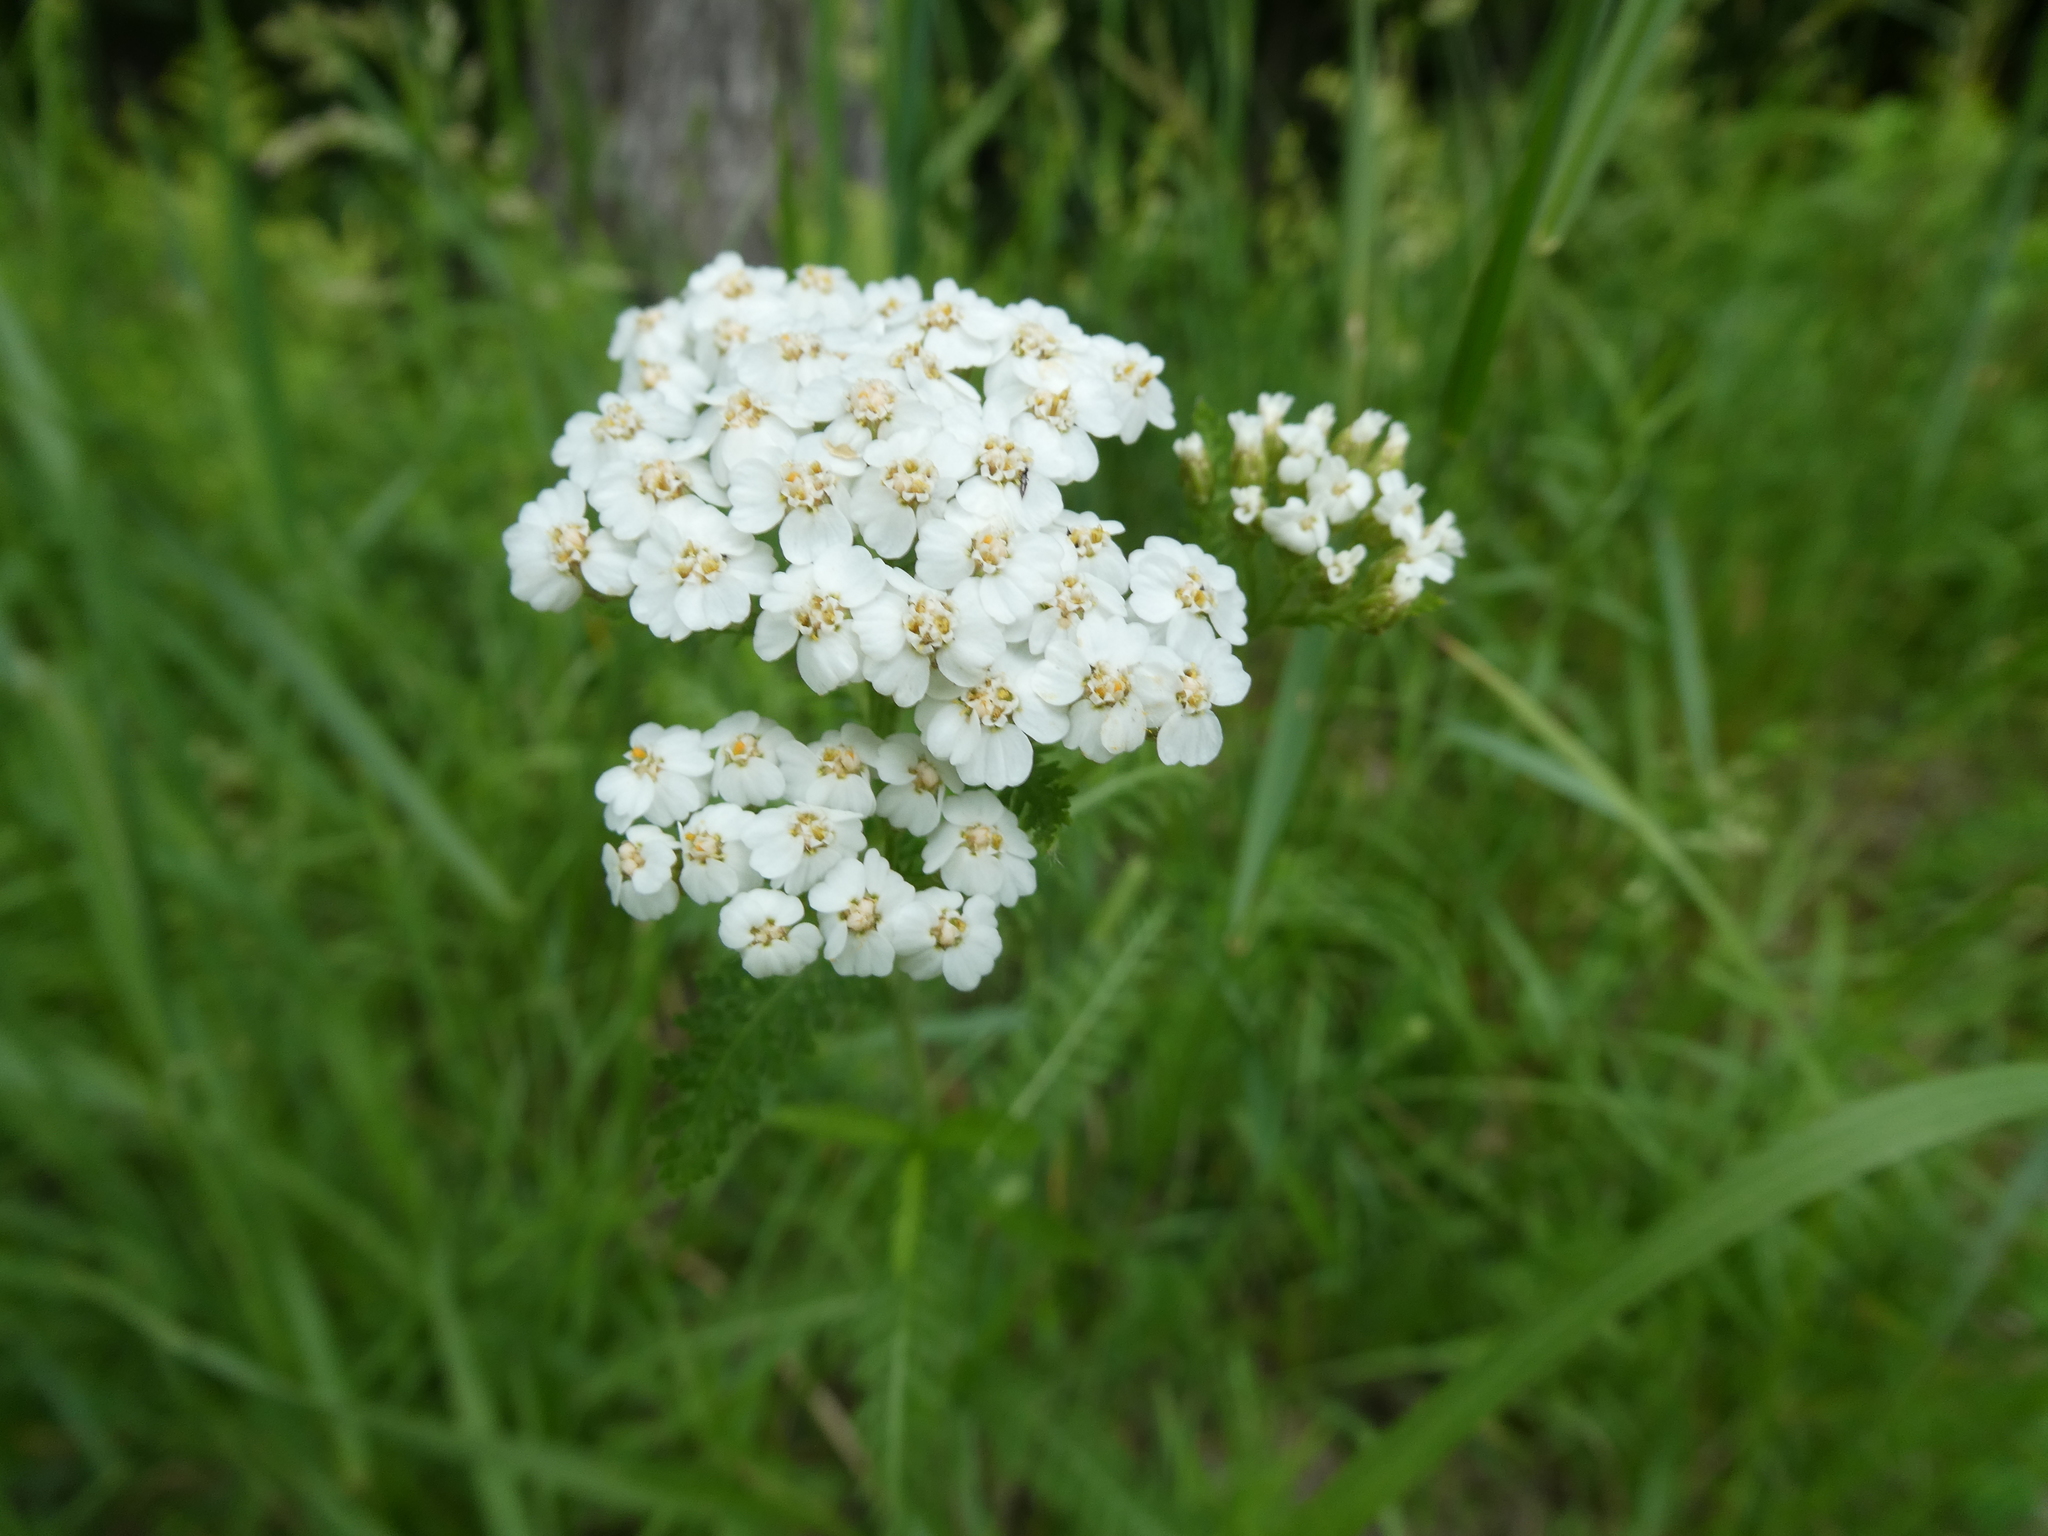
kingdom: Plantae
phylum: Tracheophyta
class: Magnoliopsida
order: Asterales
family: Asteraceae
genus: Achillea
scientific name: Achillea millefolium
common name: Yarrow
